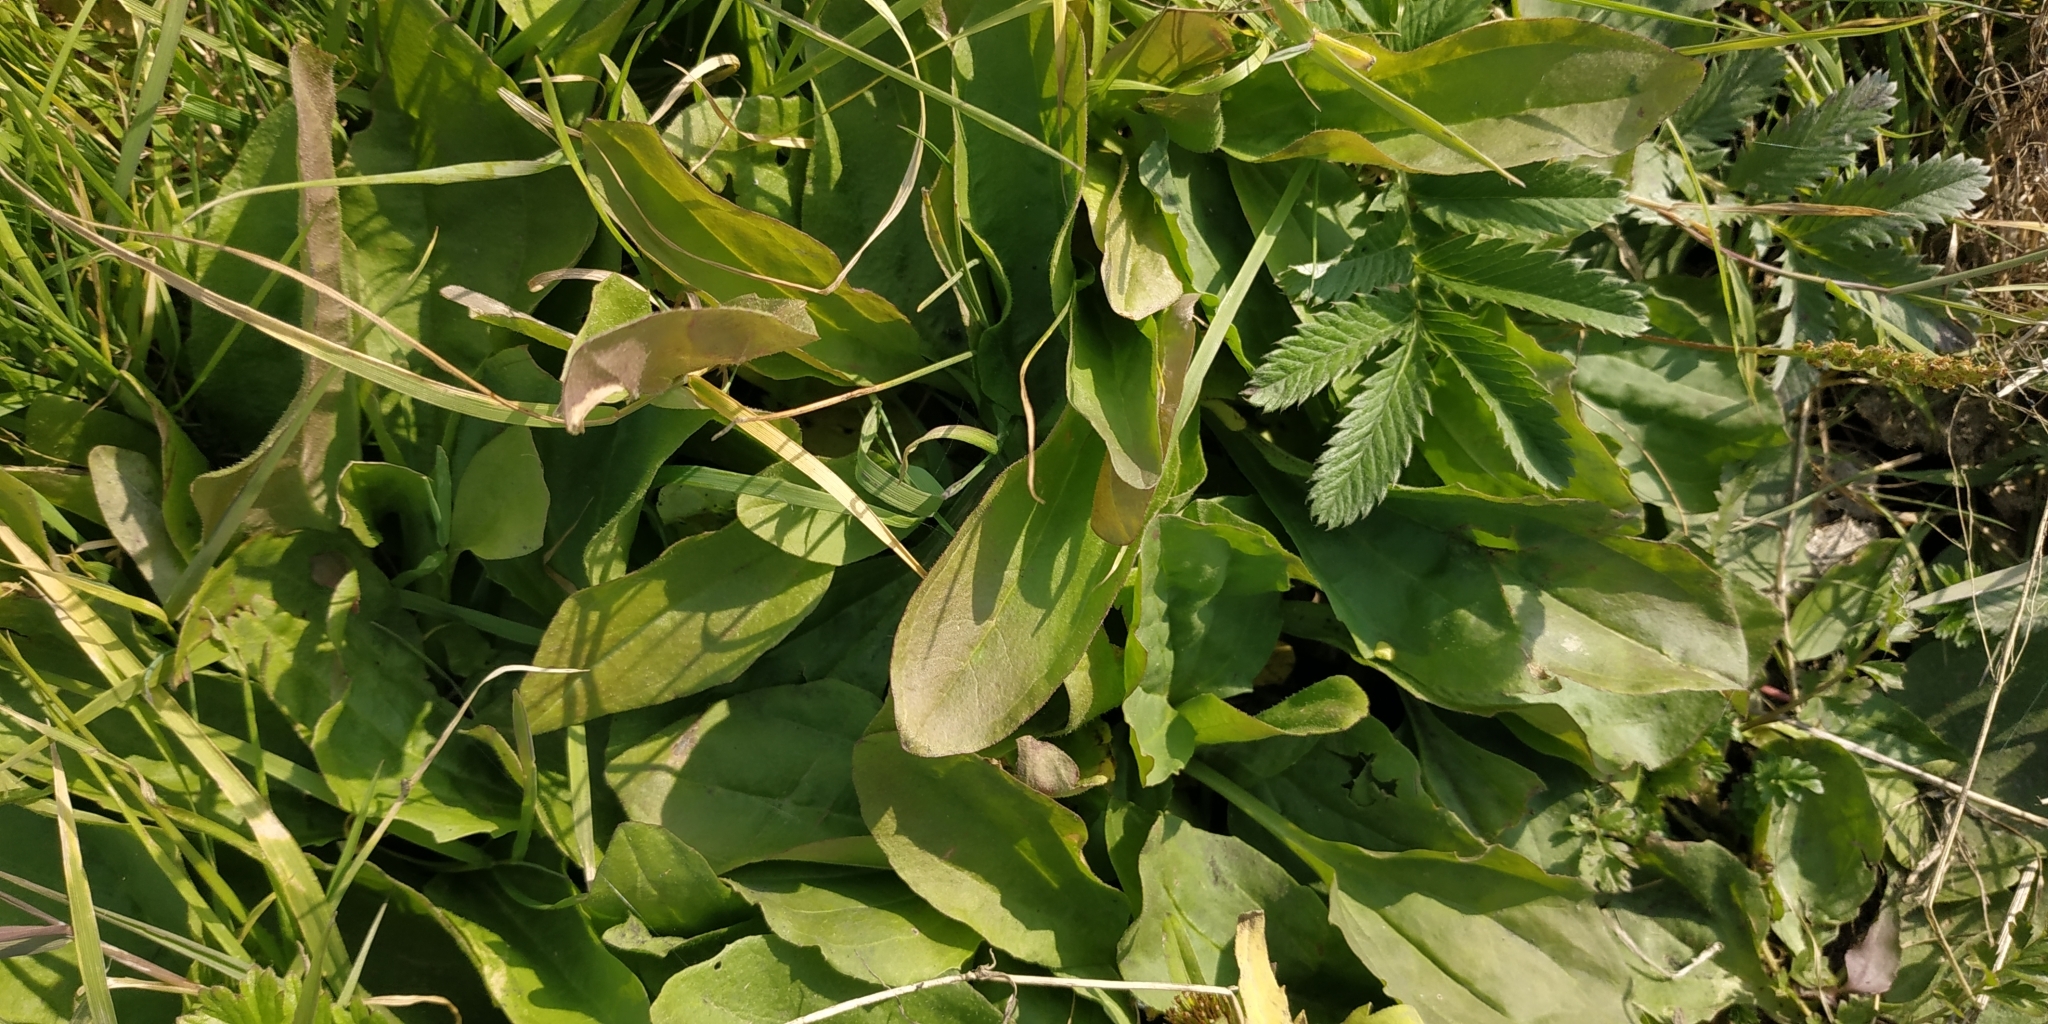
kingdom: Plantae
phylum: Tracheophyta
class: Magnoliopsida
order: Lamiales
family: Plantaginaceae
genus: Plantago
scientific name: Plantago major
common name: Common plantain
